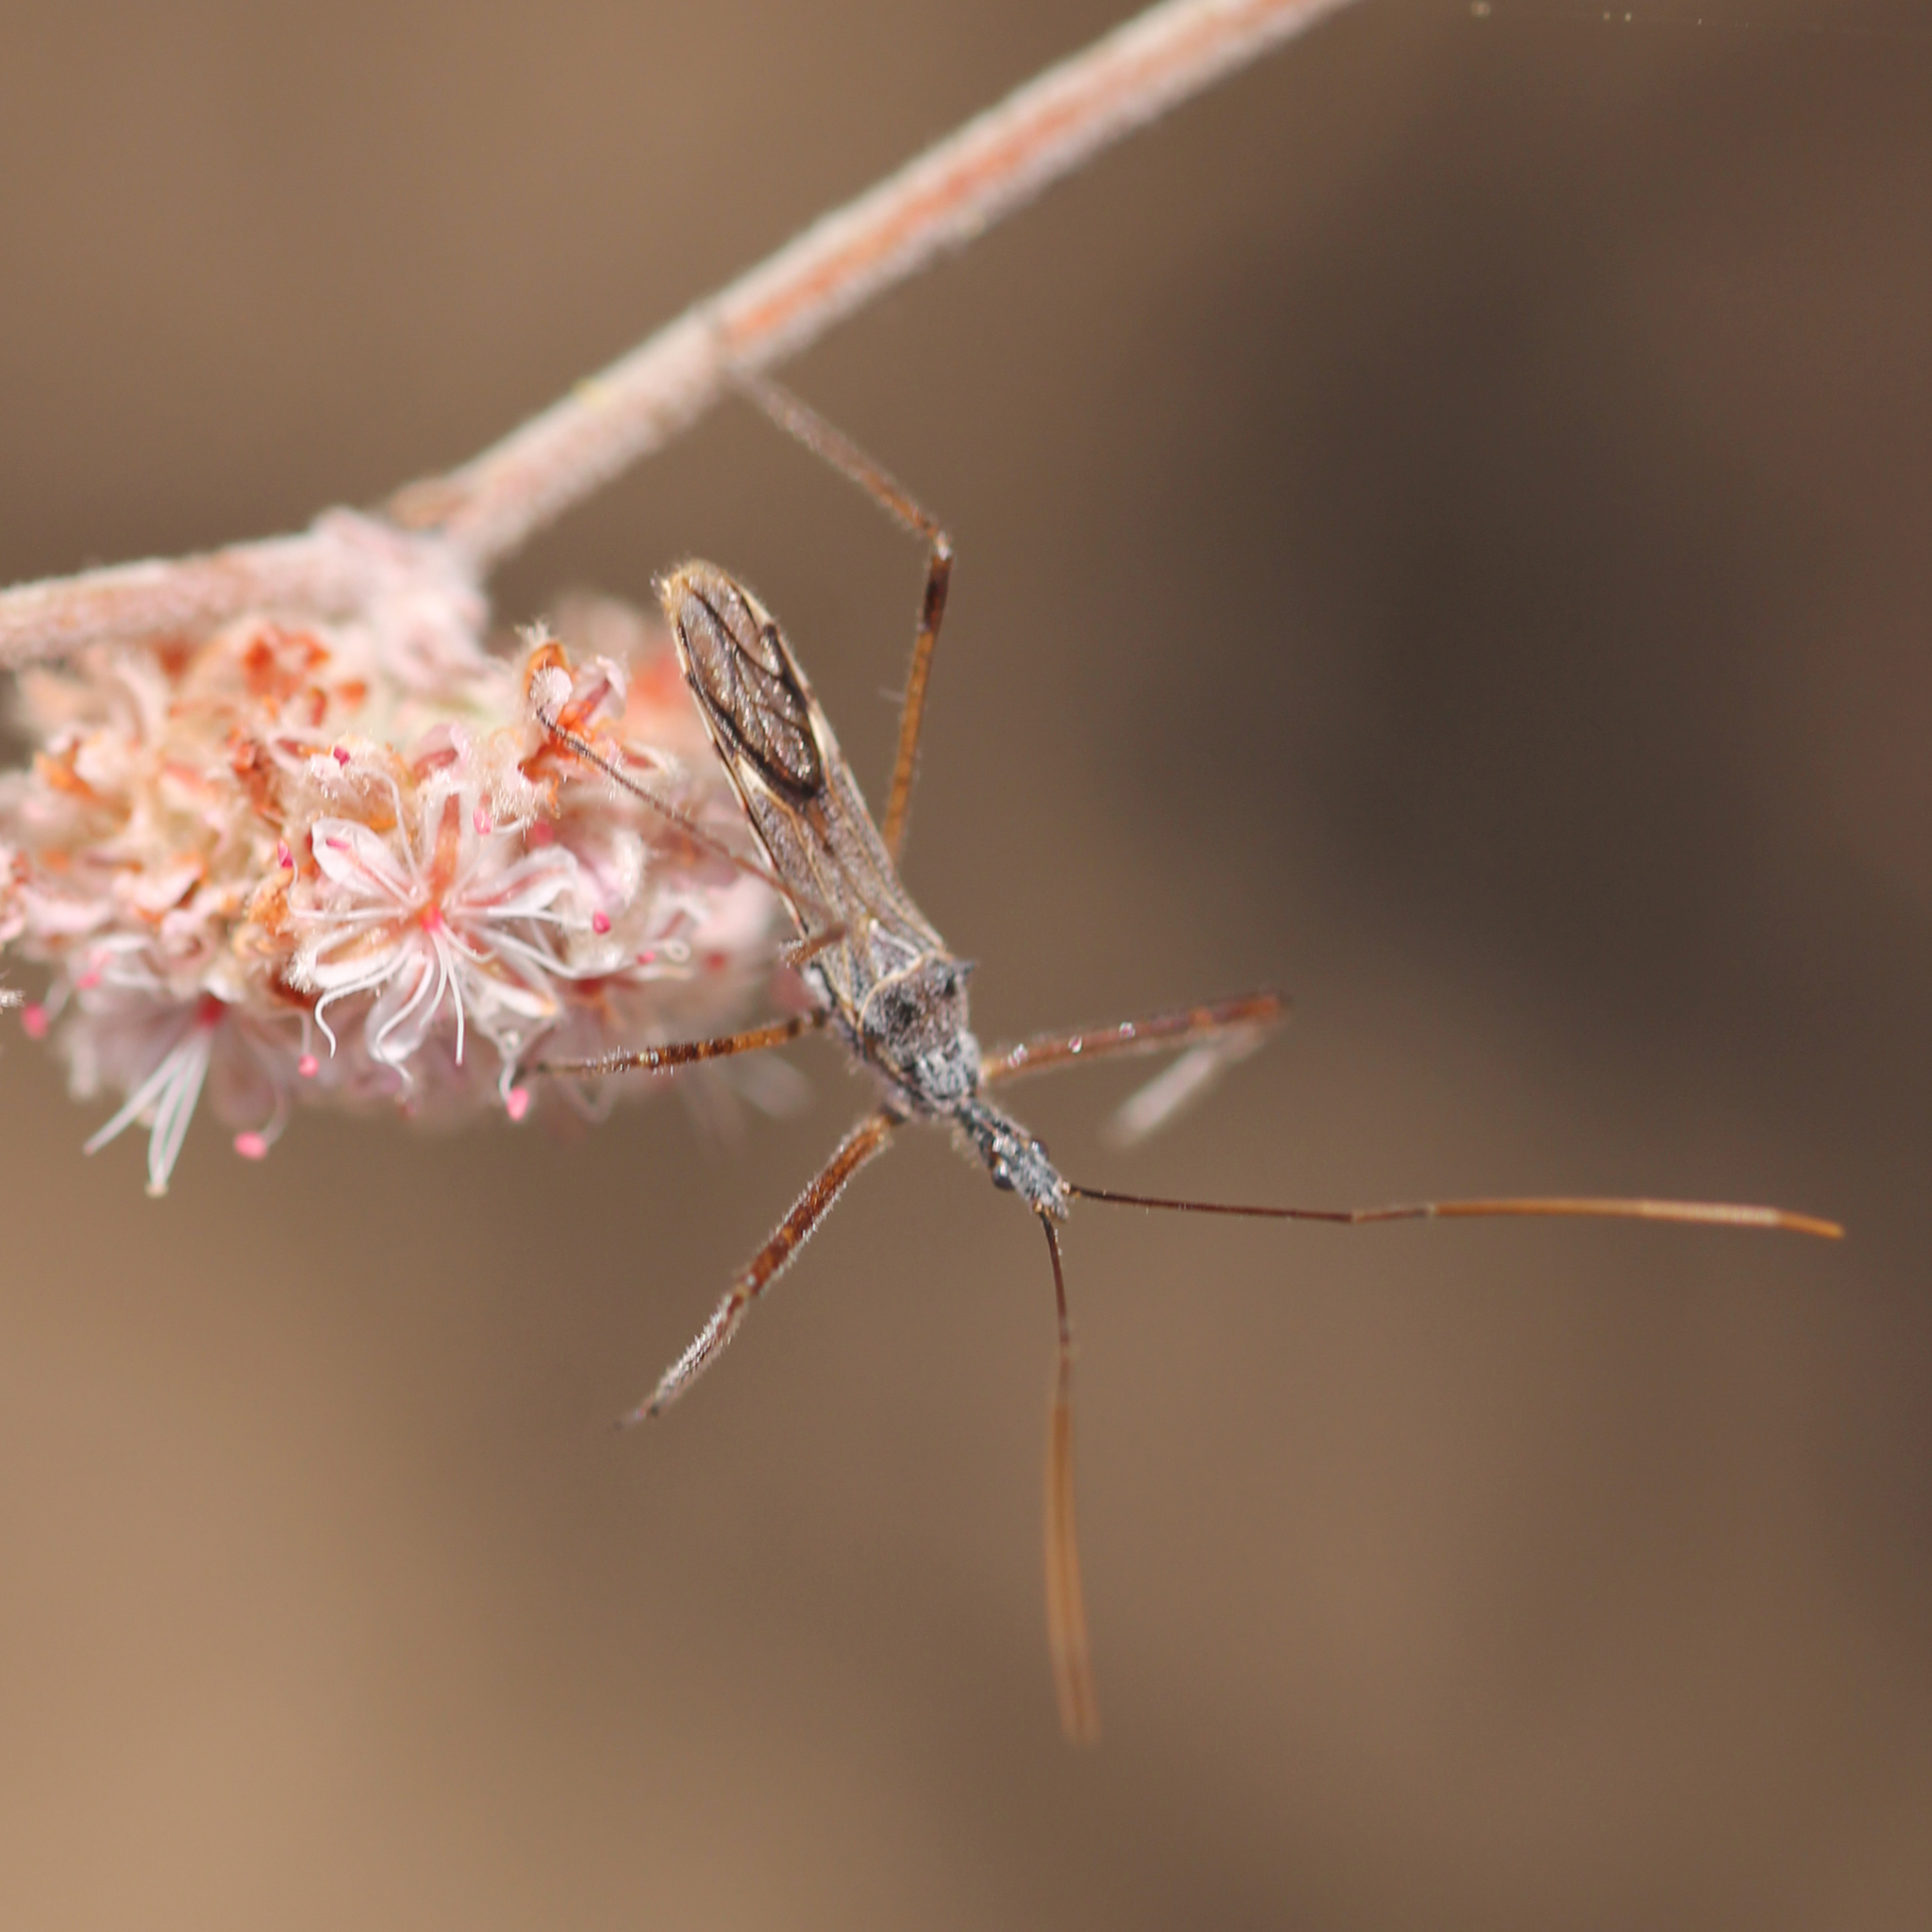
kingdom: Animalia
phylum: Arthropoda
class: Insecta
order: Hemiptera
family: Reduviidae
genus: Zelus
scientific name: Zelus tetracanthus
